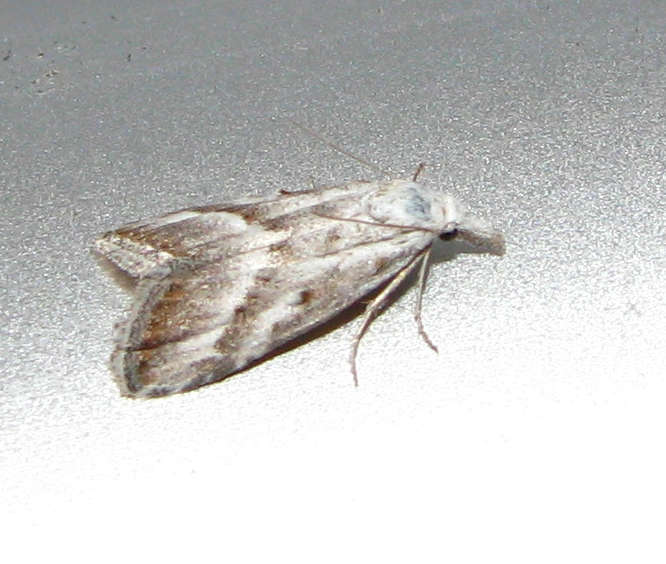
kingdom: Animalia
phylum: Arthropoda
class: Insecta
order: Lepidoptera
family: Nolidae
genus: Nola
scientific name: Nola paromoea
